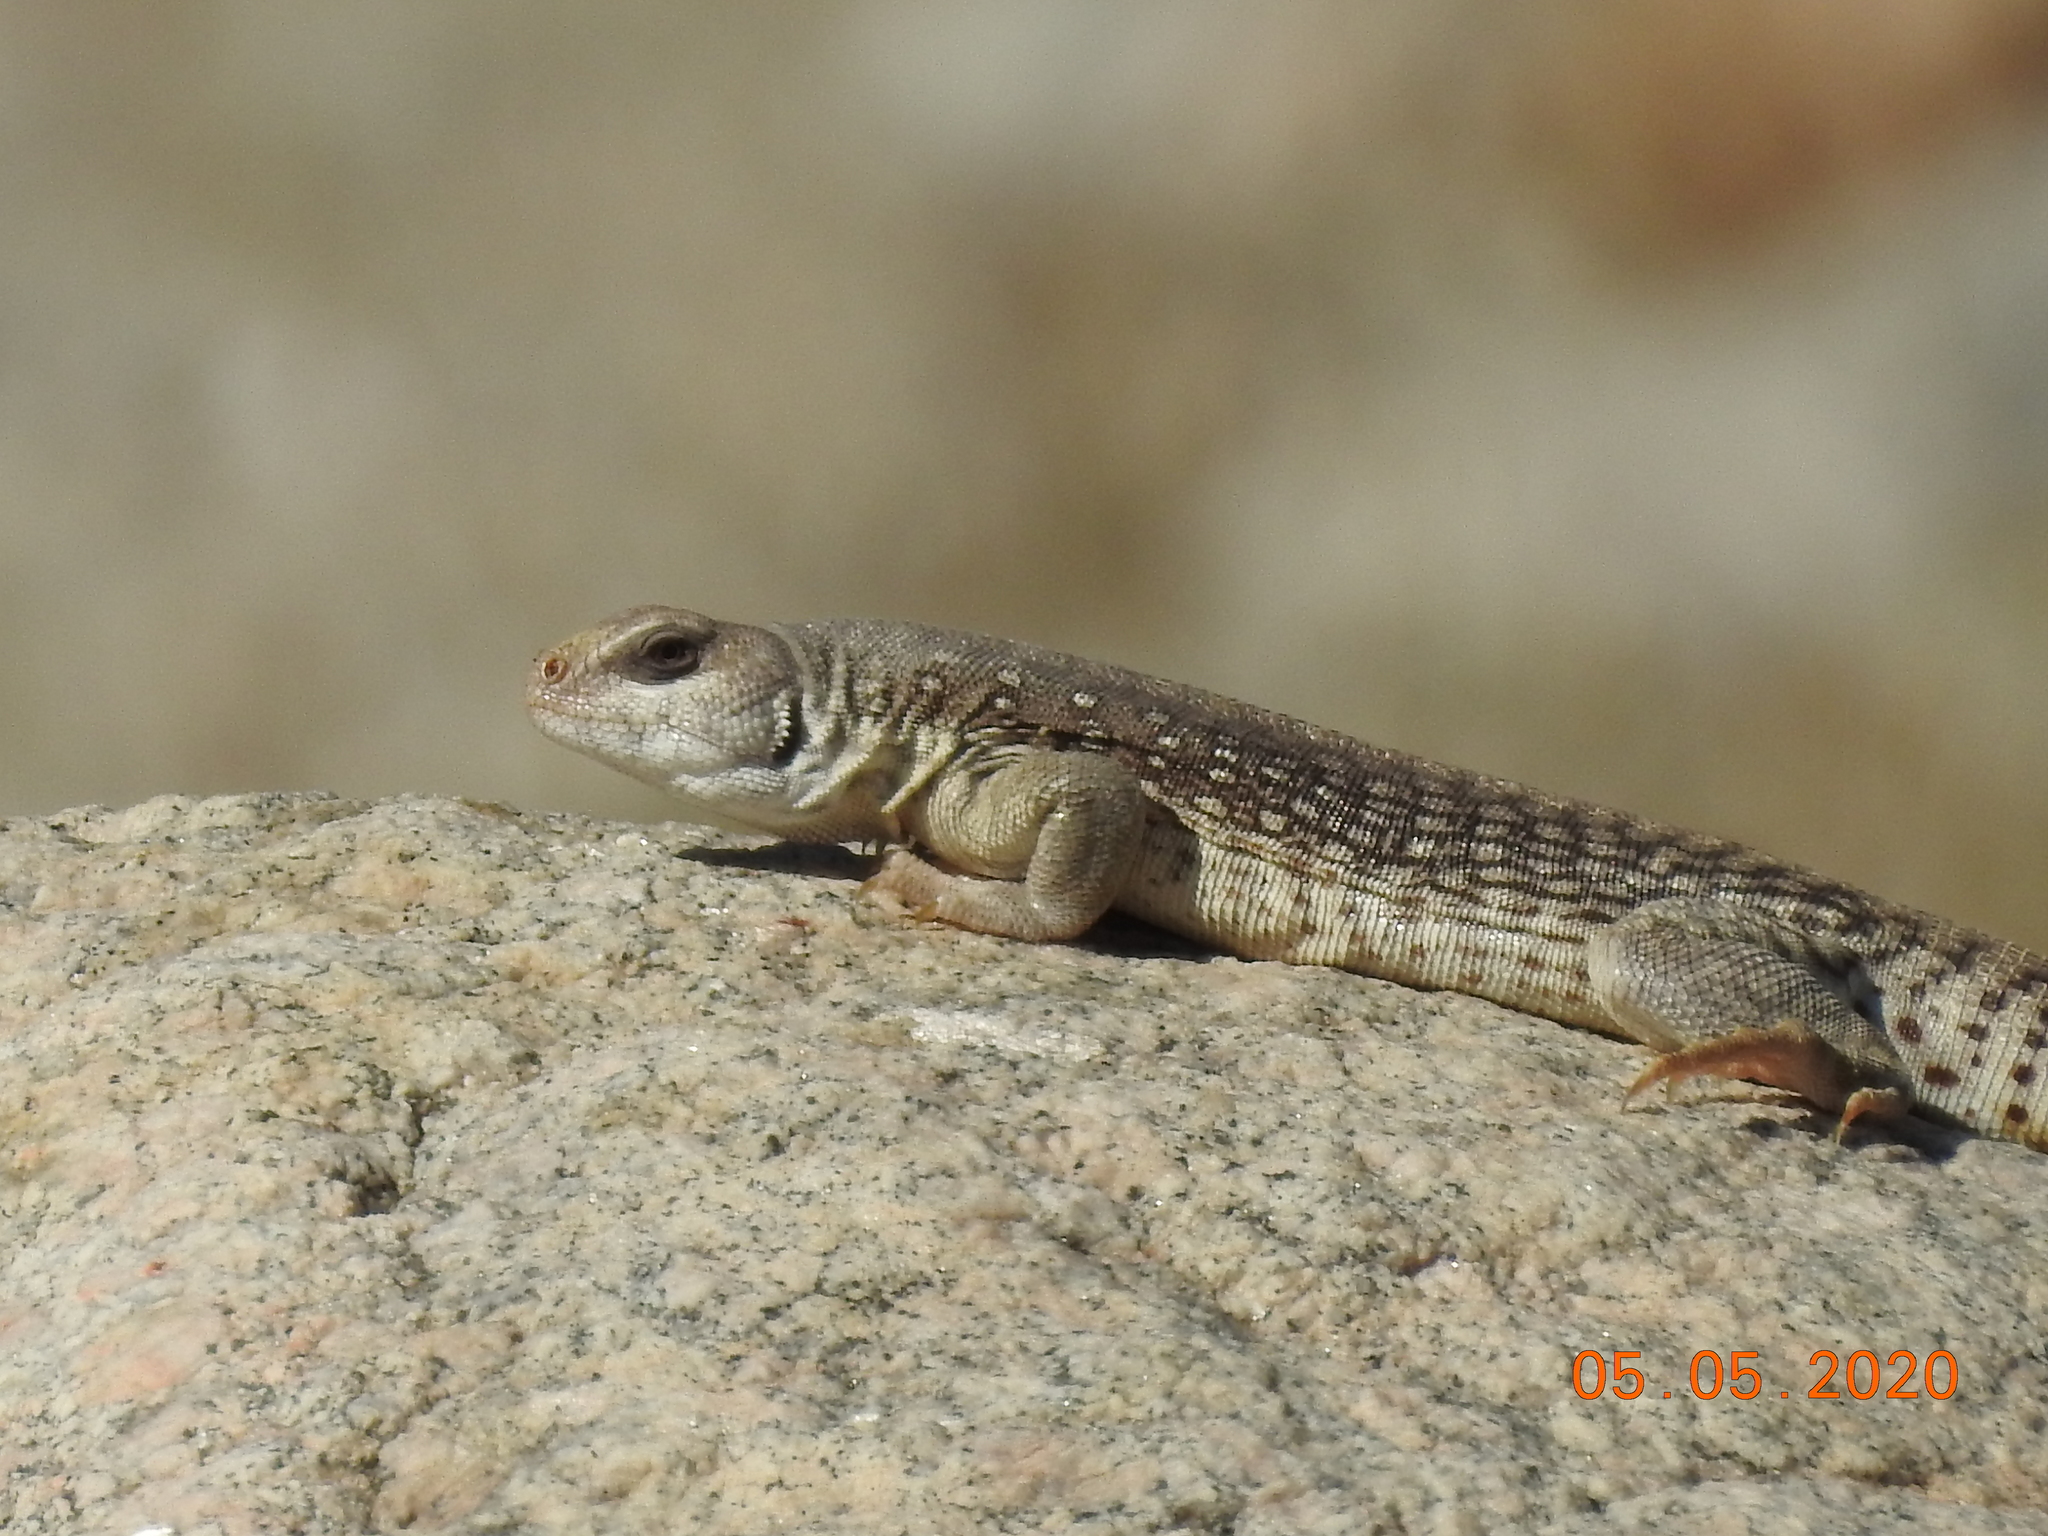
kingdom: Animalia
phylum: Chordata
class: Squamata
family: Iguanidae
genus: Dipsosaurus
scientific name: Dipsosaurus dorsalis
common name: Desert iguana
